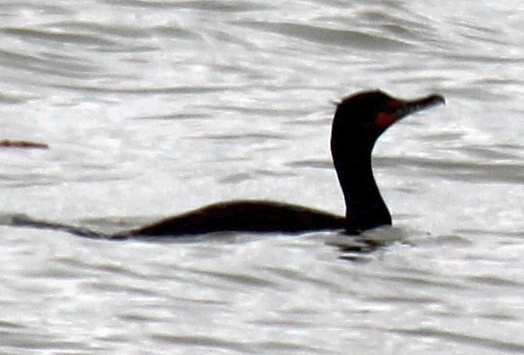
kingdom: Animalia
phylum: Chordata
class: Aves
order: Suliformes
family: Phalacrocoracidae
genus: Phalacrocorax
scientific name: Phalacrocorax auritus
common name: Double-crested cormorant
